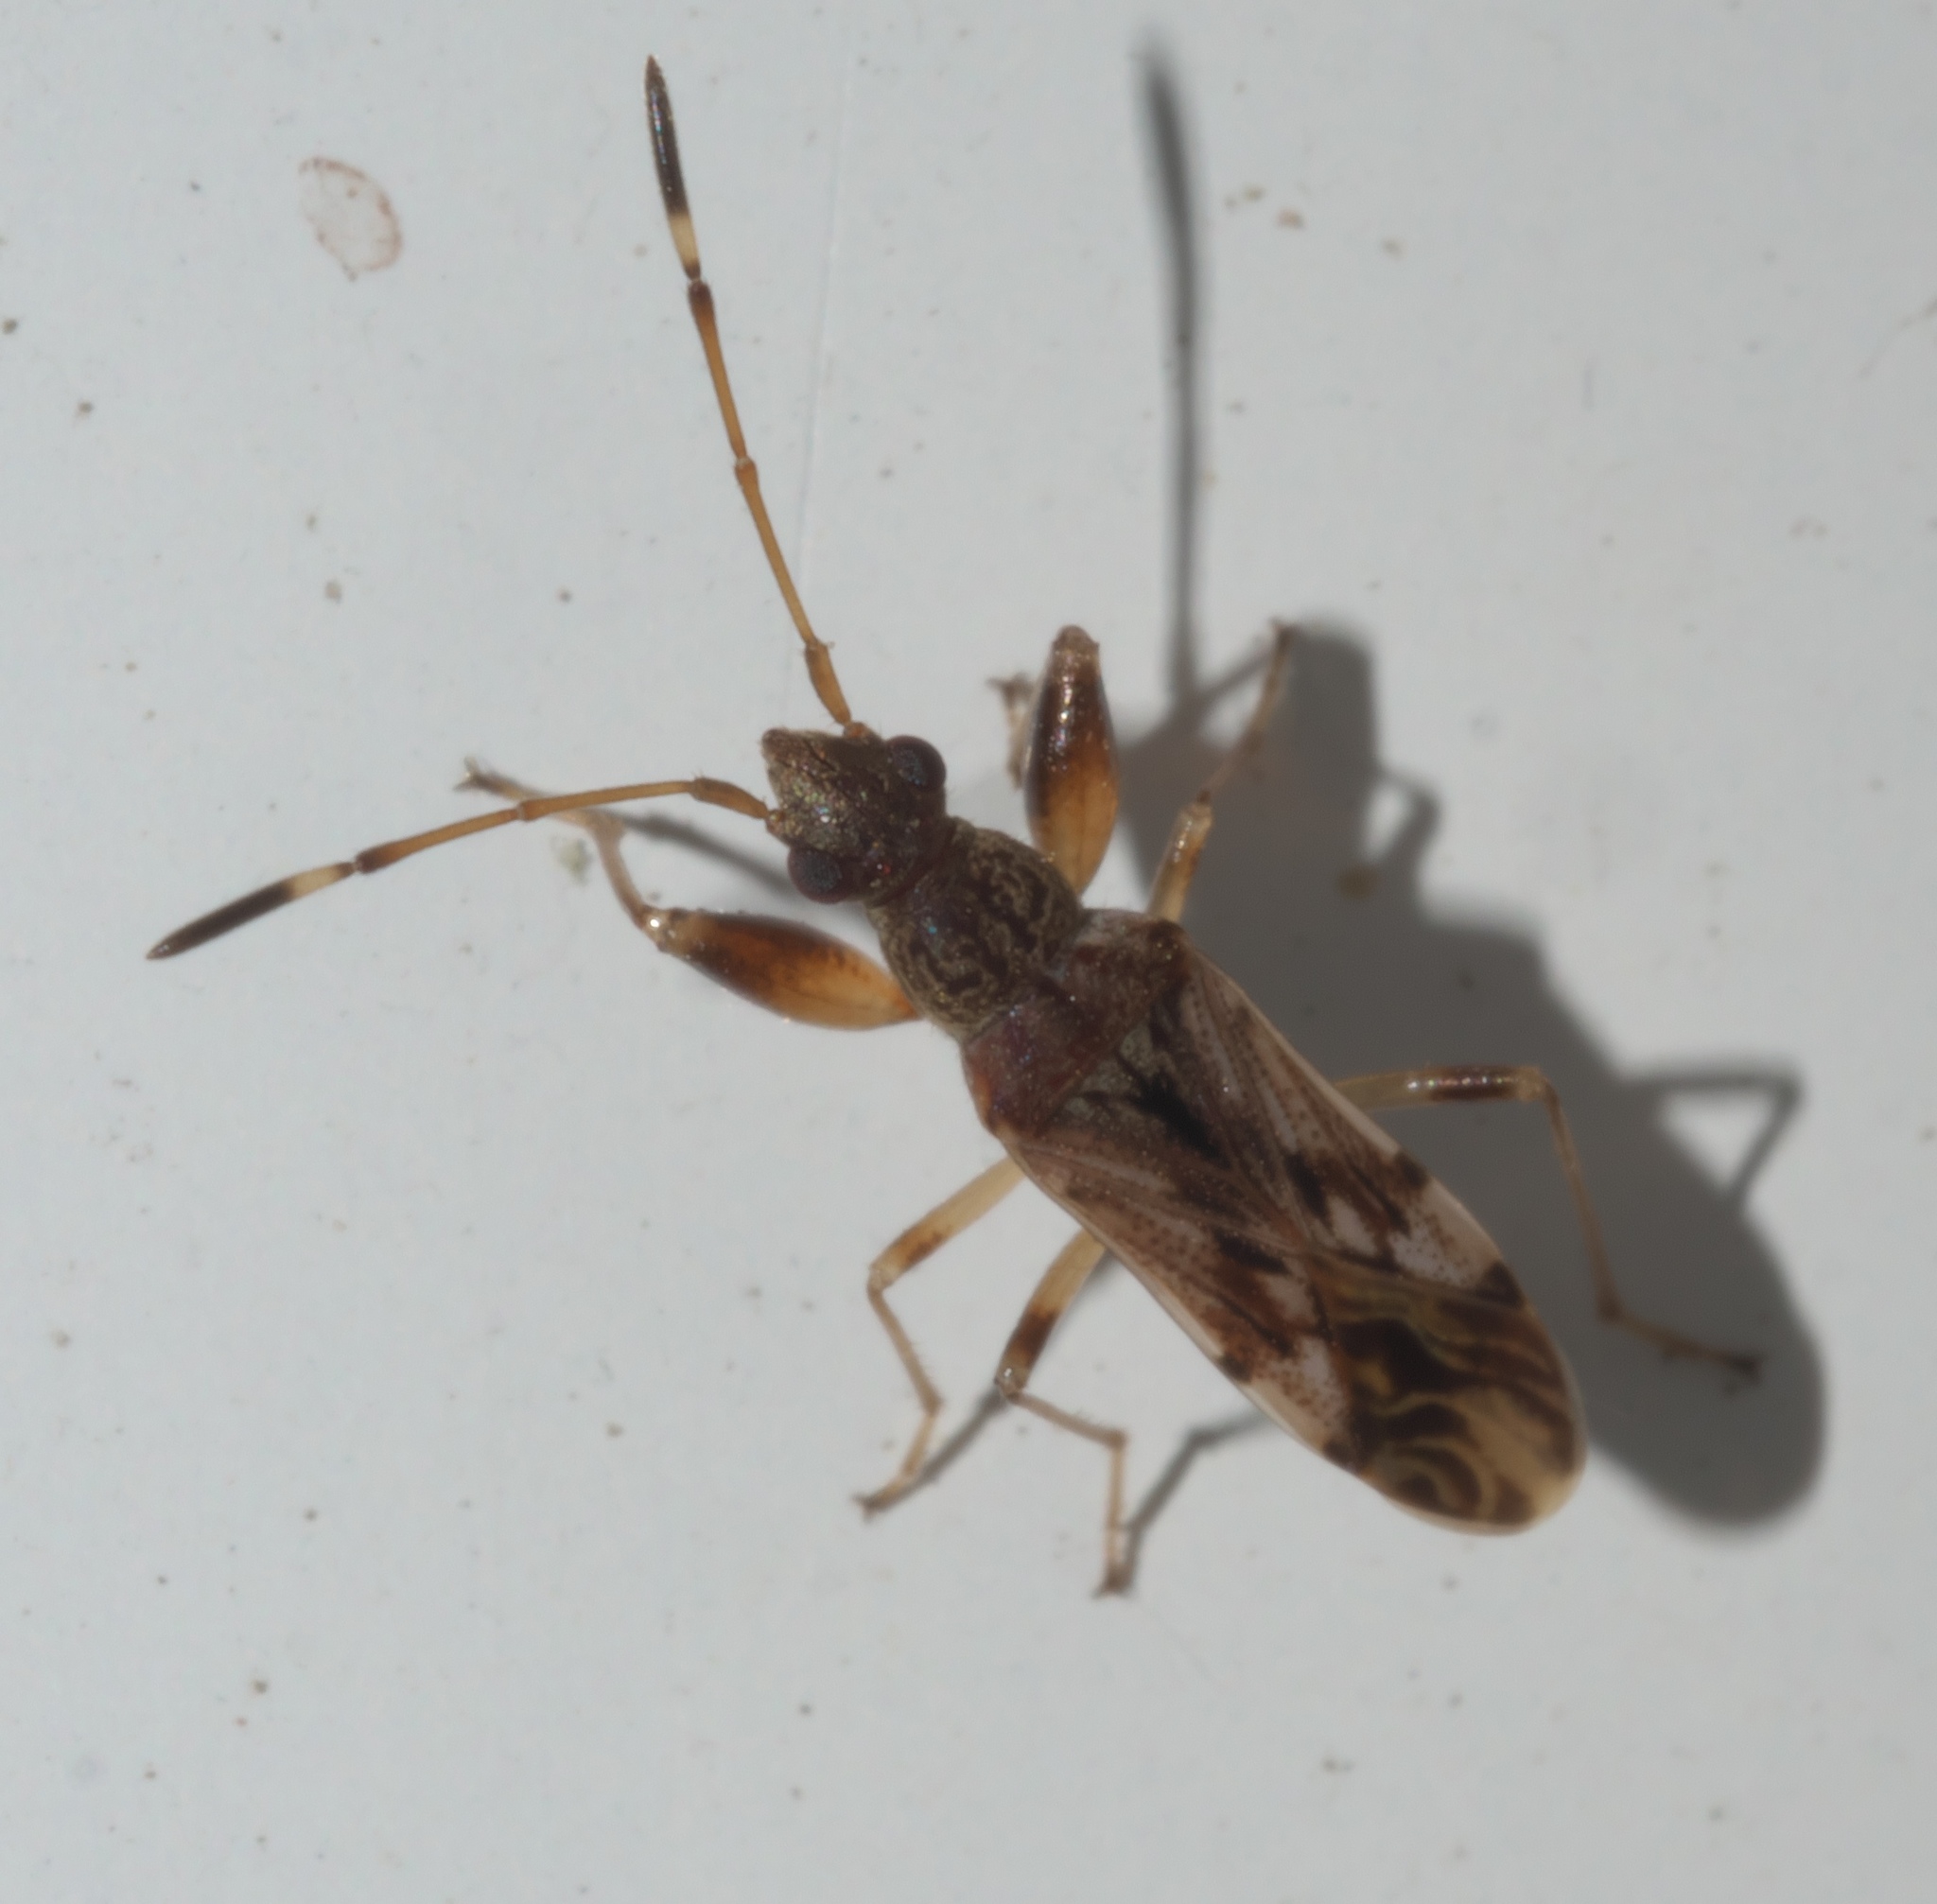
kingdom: Animalia
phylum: Arthropoda
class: Insecta
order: Hemiptera
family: Rhyparochromidae
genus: Neopamera
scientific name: Neopamera albocincta
